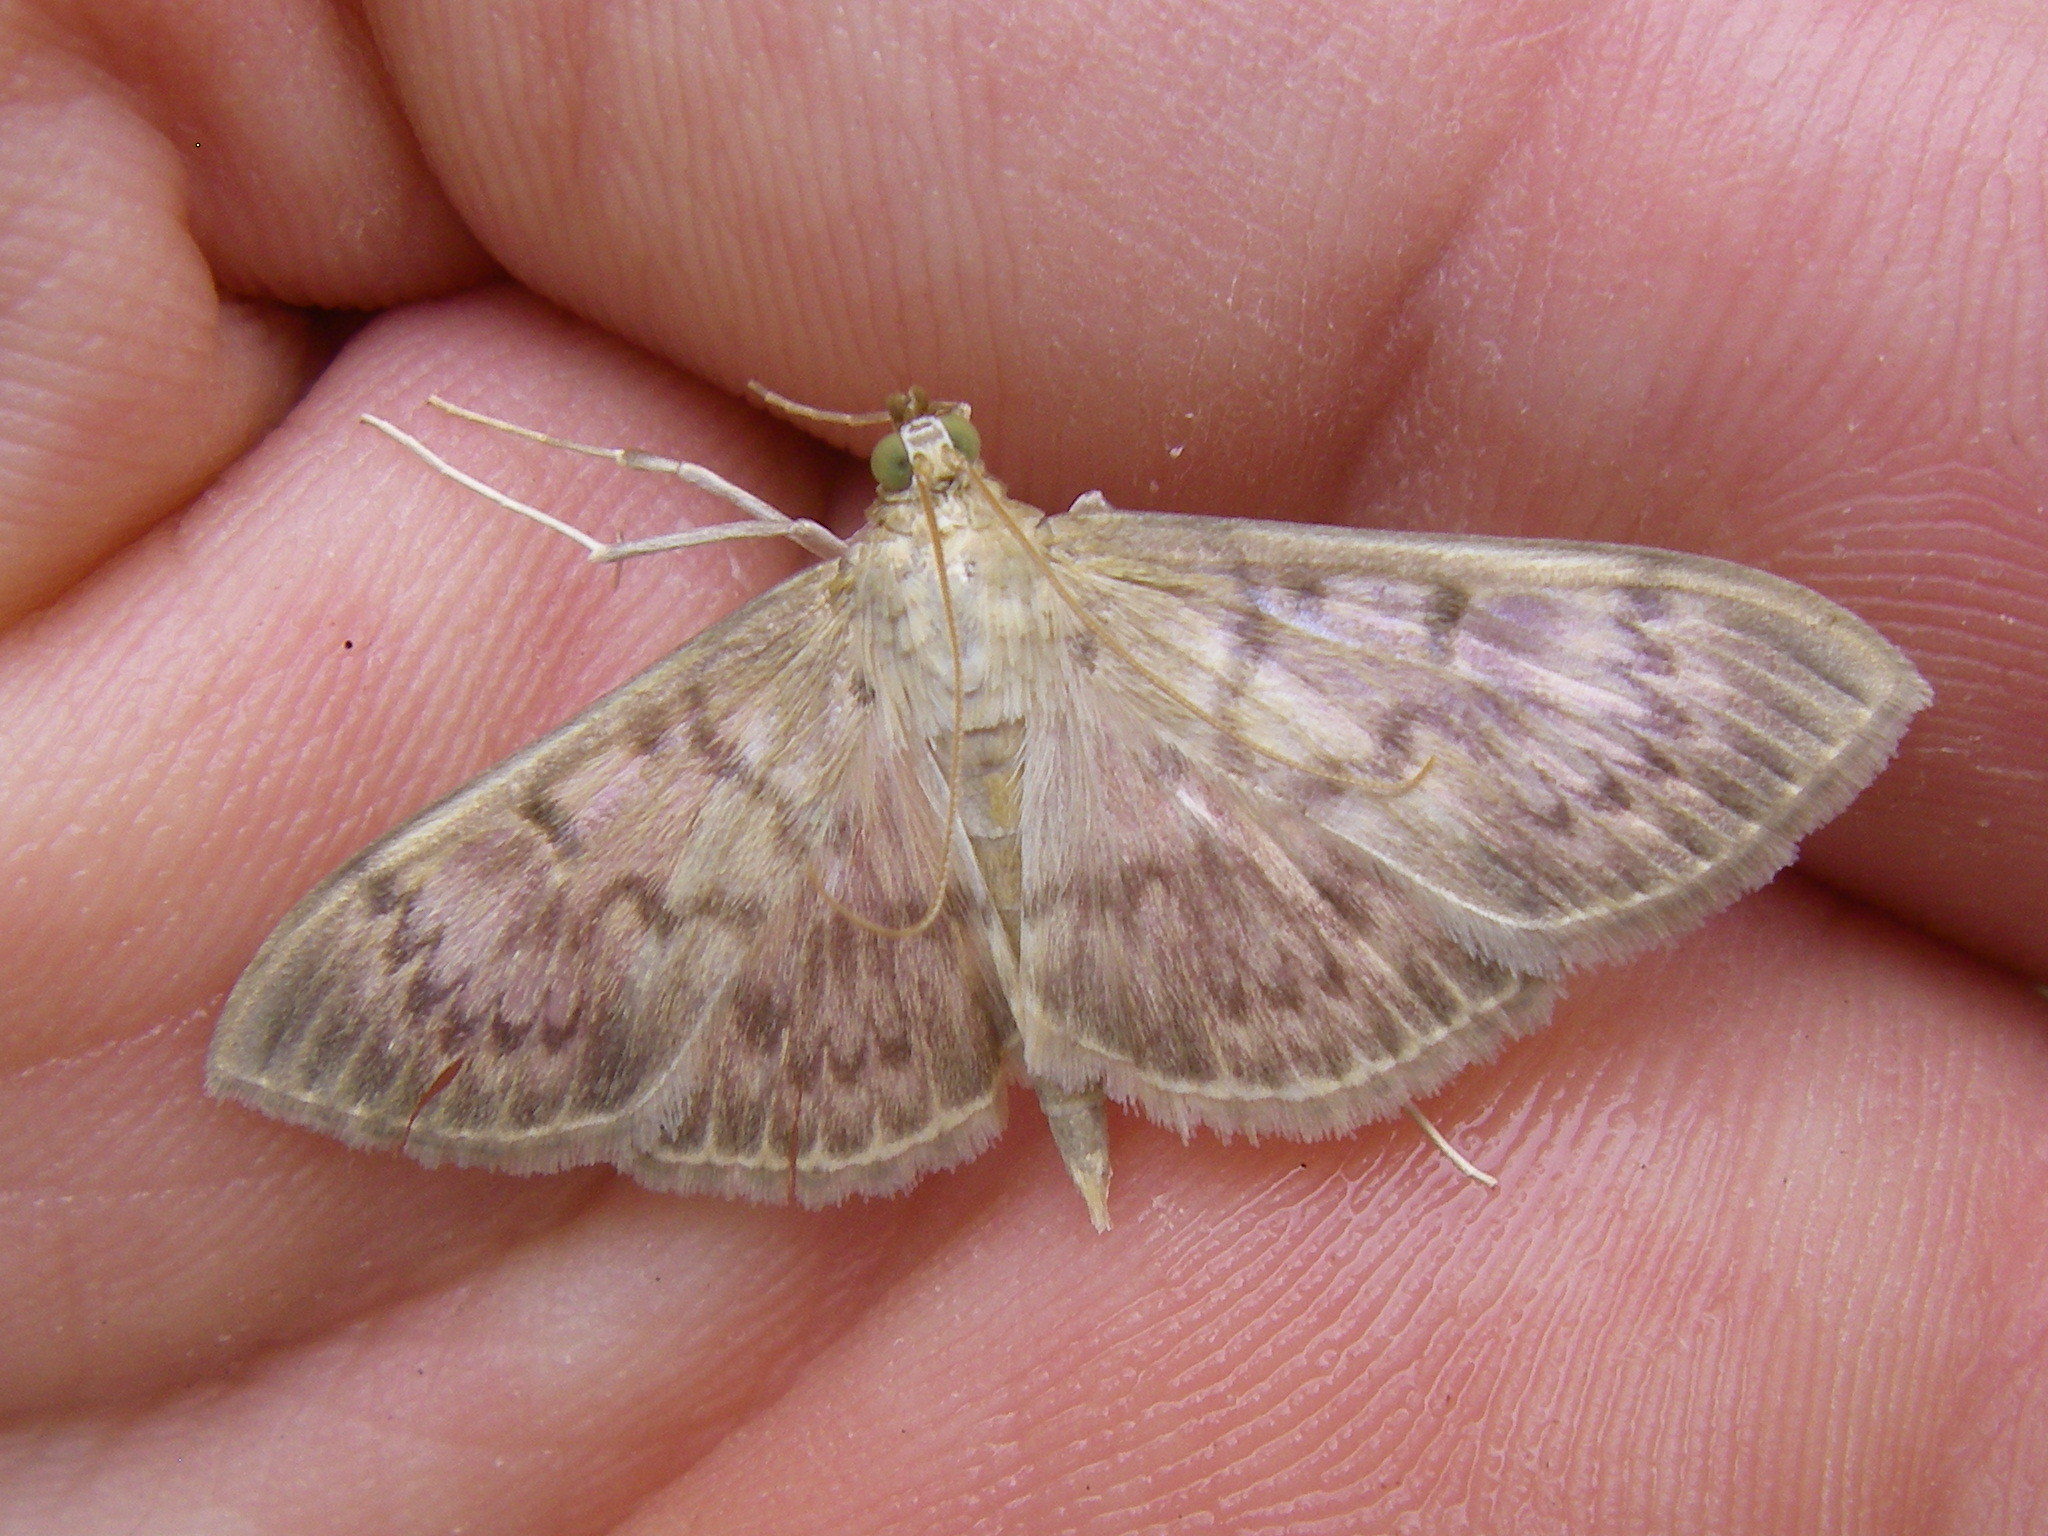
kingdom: Animalia
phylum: Arthropoda
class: Insecta
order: Lepidoptera
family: Crambidae
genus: Patania
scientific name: Patania ruralis
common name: Mother of pearl
